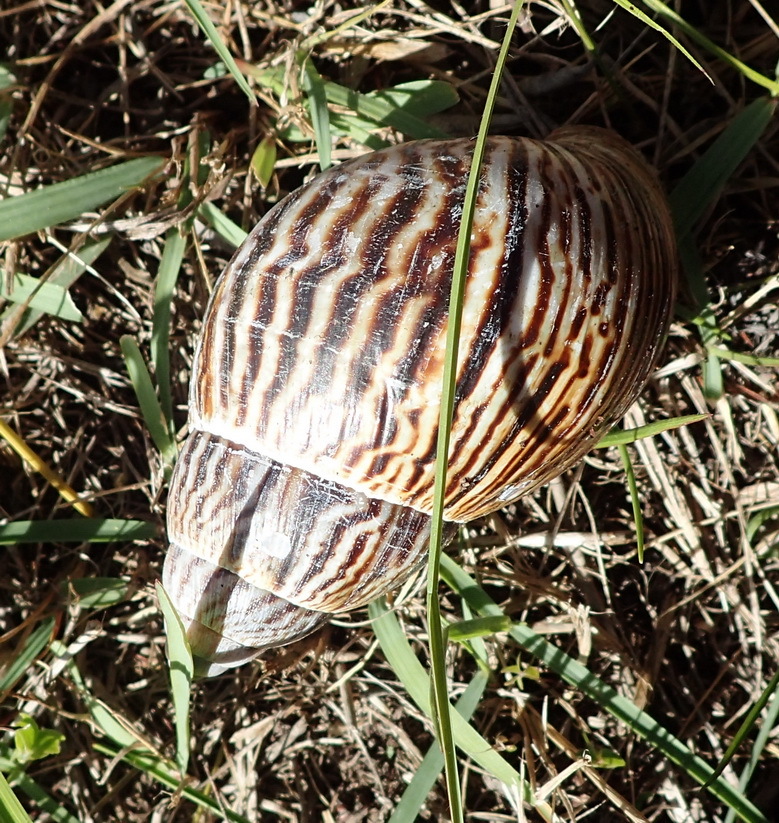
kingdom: Animalia
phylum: Mollusca
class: Gastropoda
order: Stylommatophora
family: Achatinidae
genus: Cochlitoma
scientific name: Cochlitoma zebra
